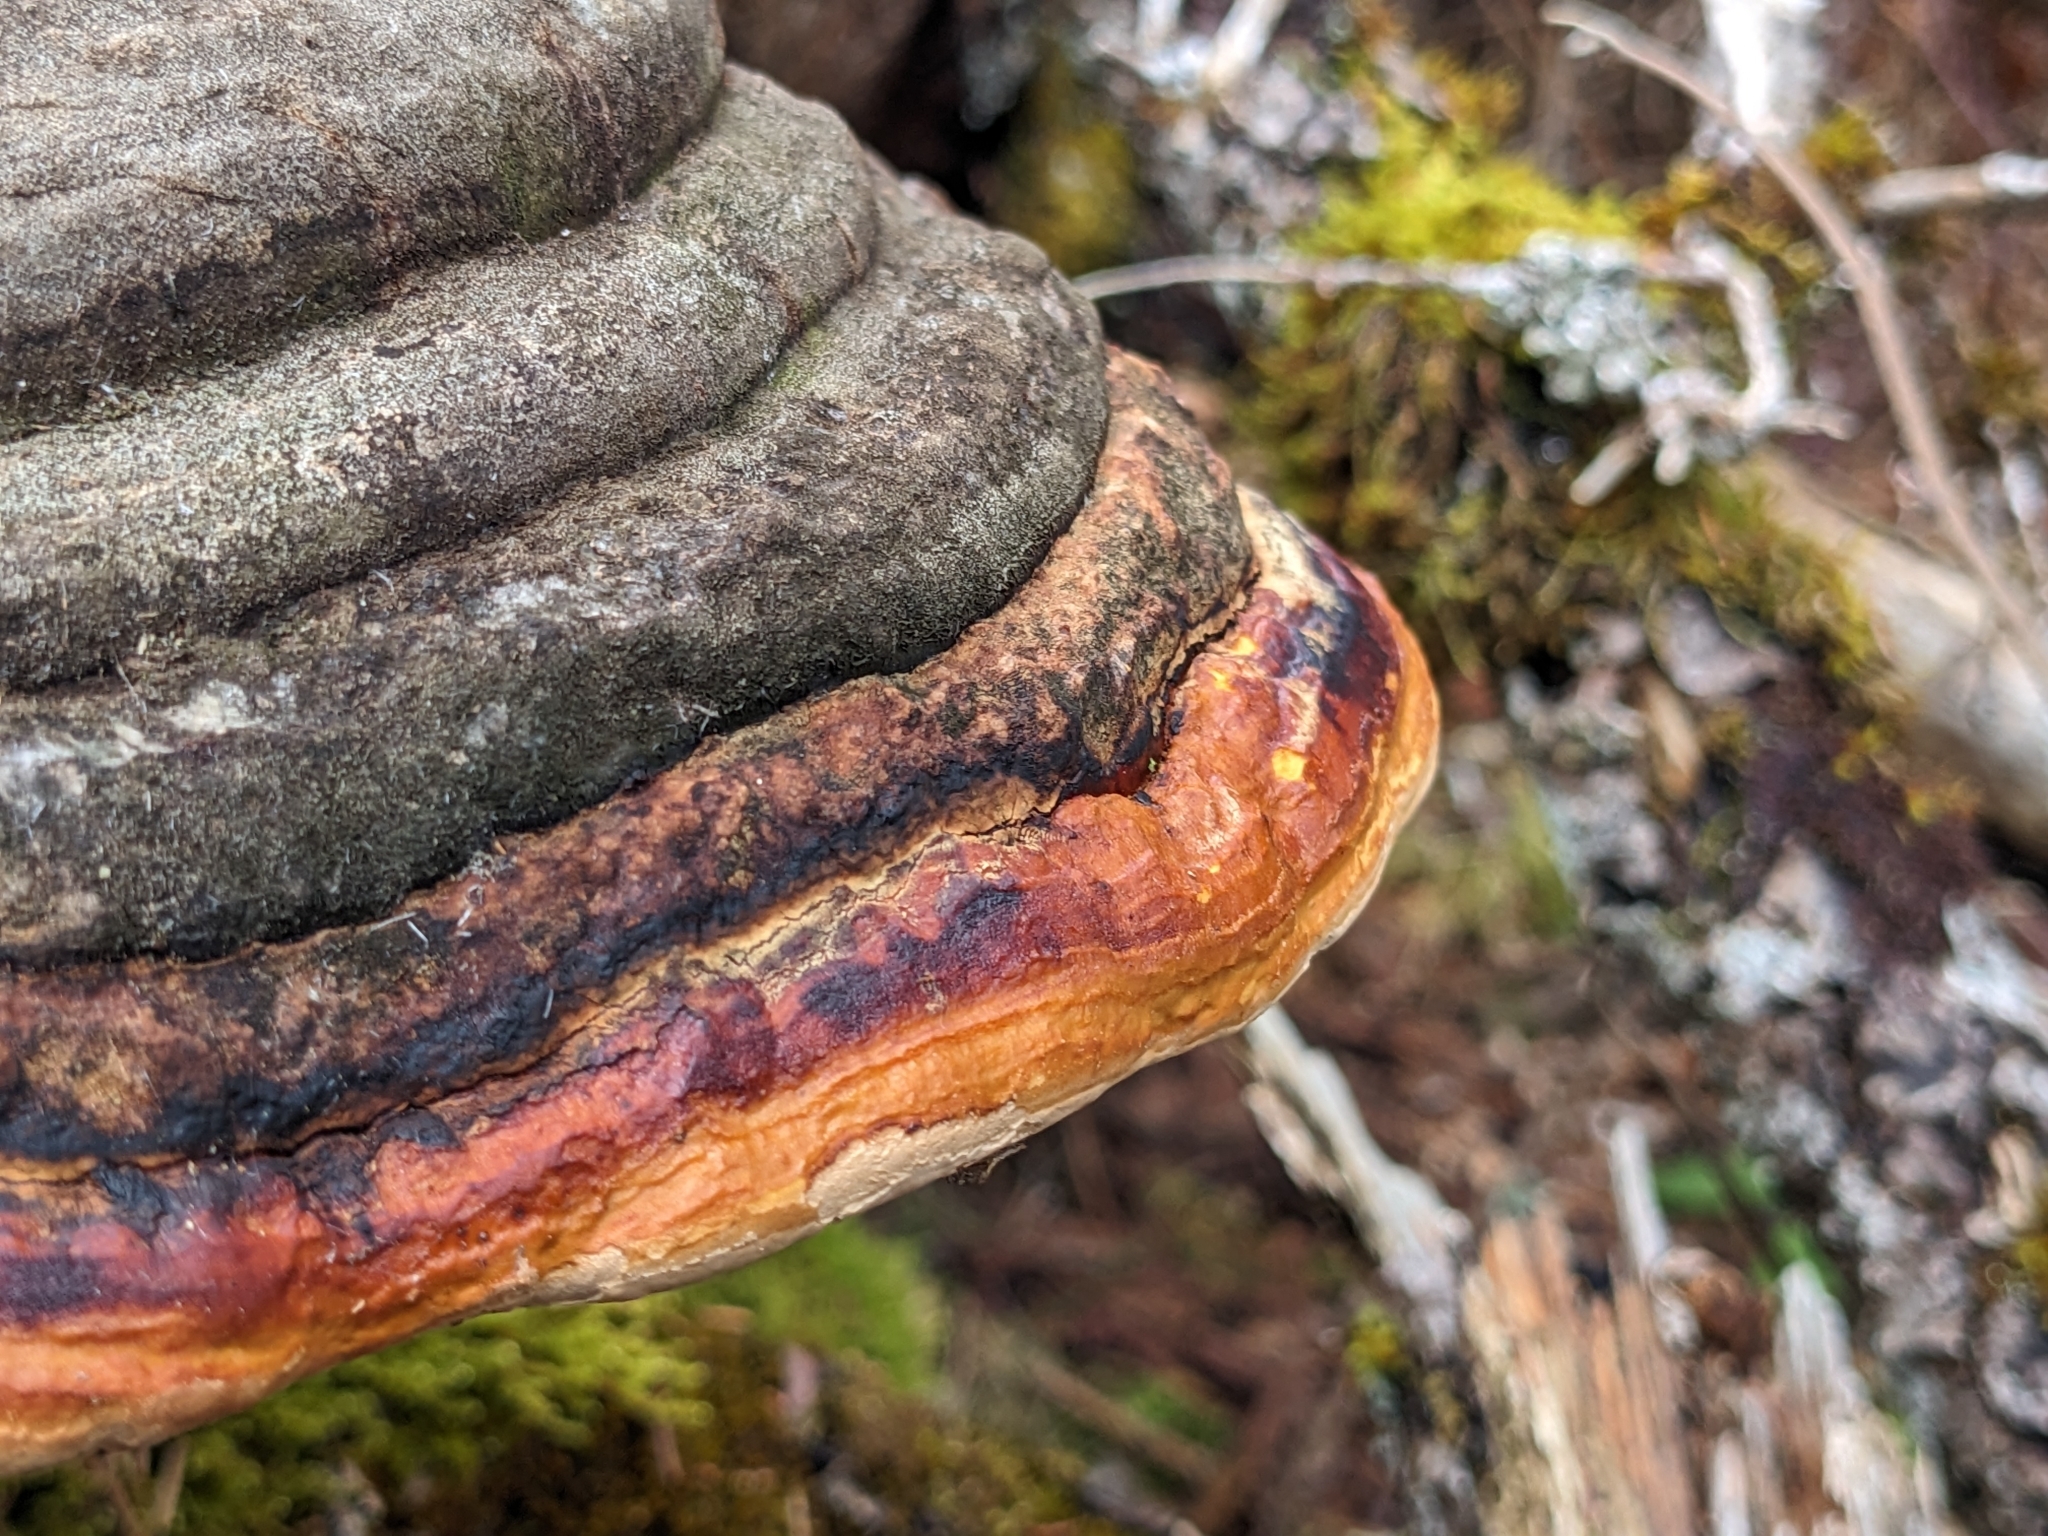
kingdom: Fungi
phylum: Basidiomycota
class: Agaricomycetes
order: Polyporales
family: Fomitopsidaceae
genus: Fomitopsis
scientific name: Fomitopsis pinicola
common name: Red-belted bracket
